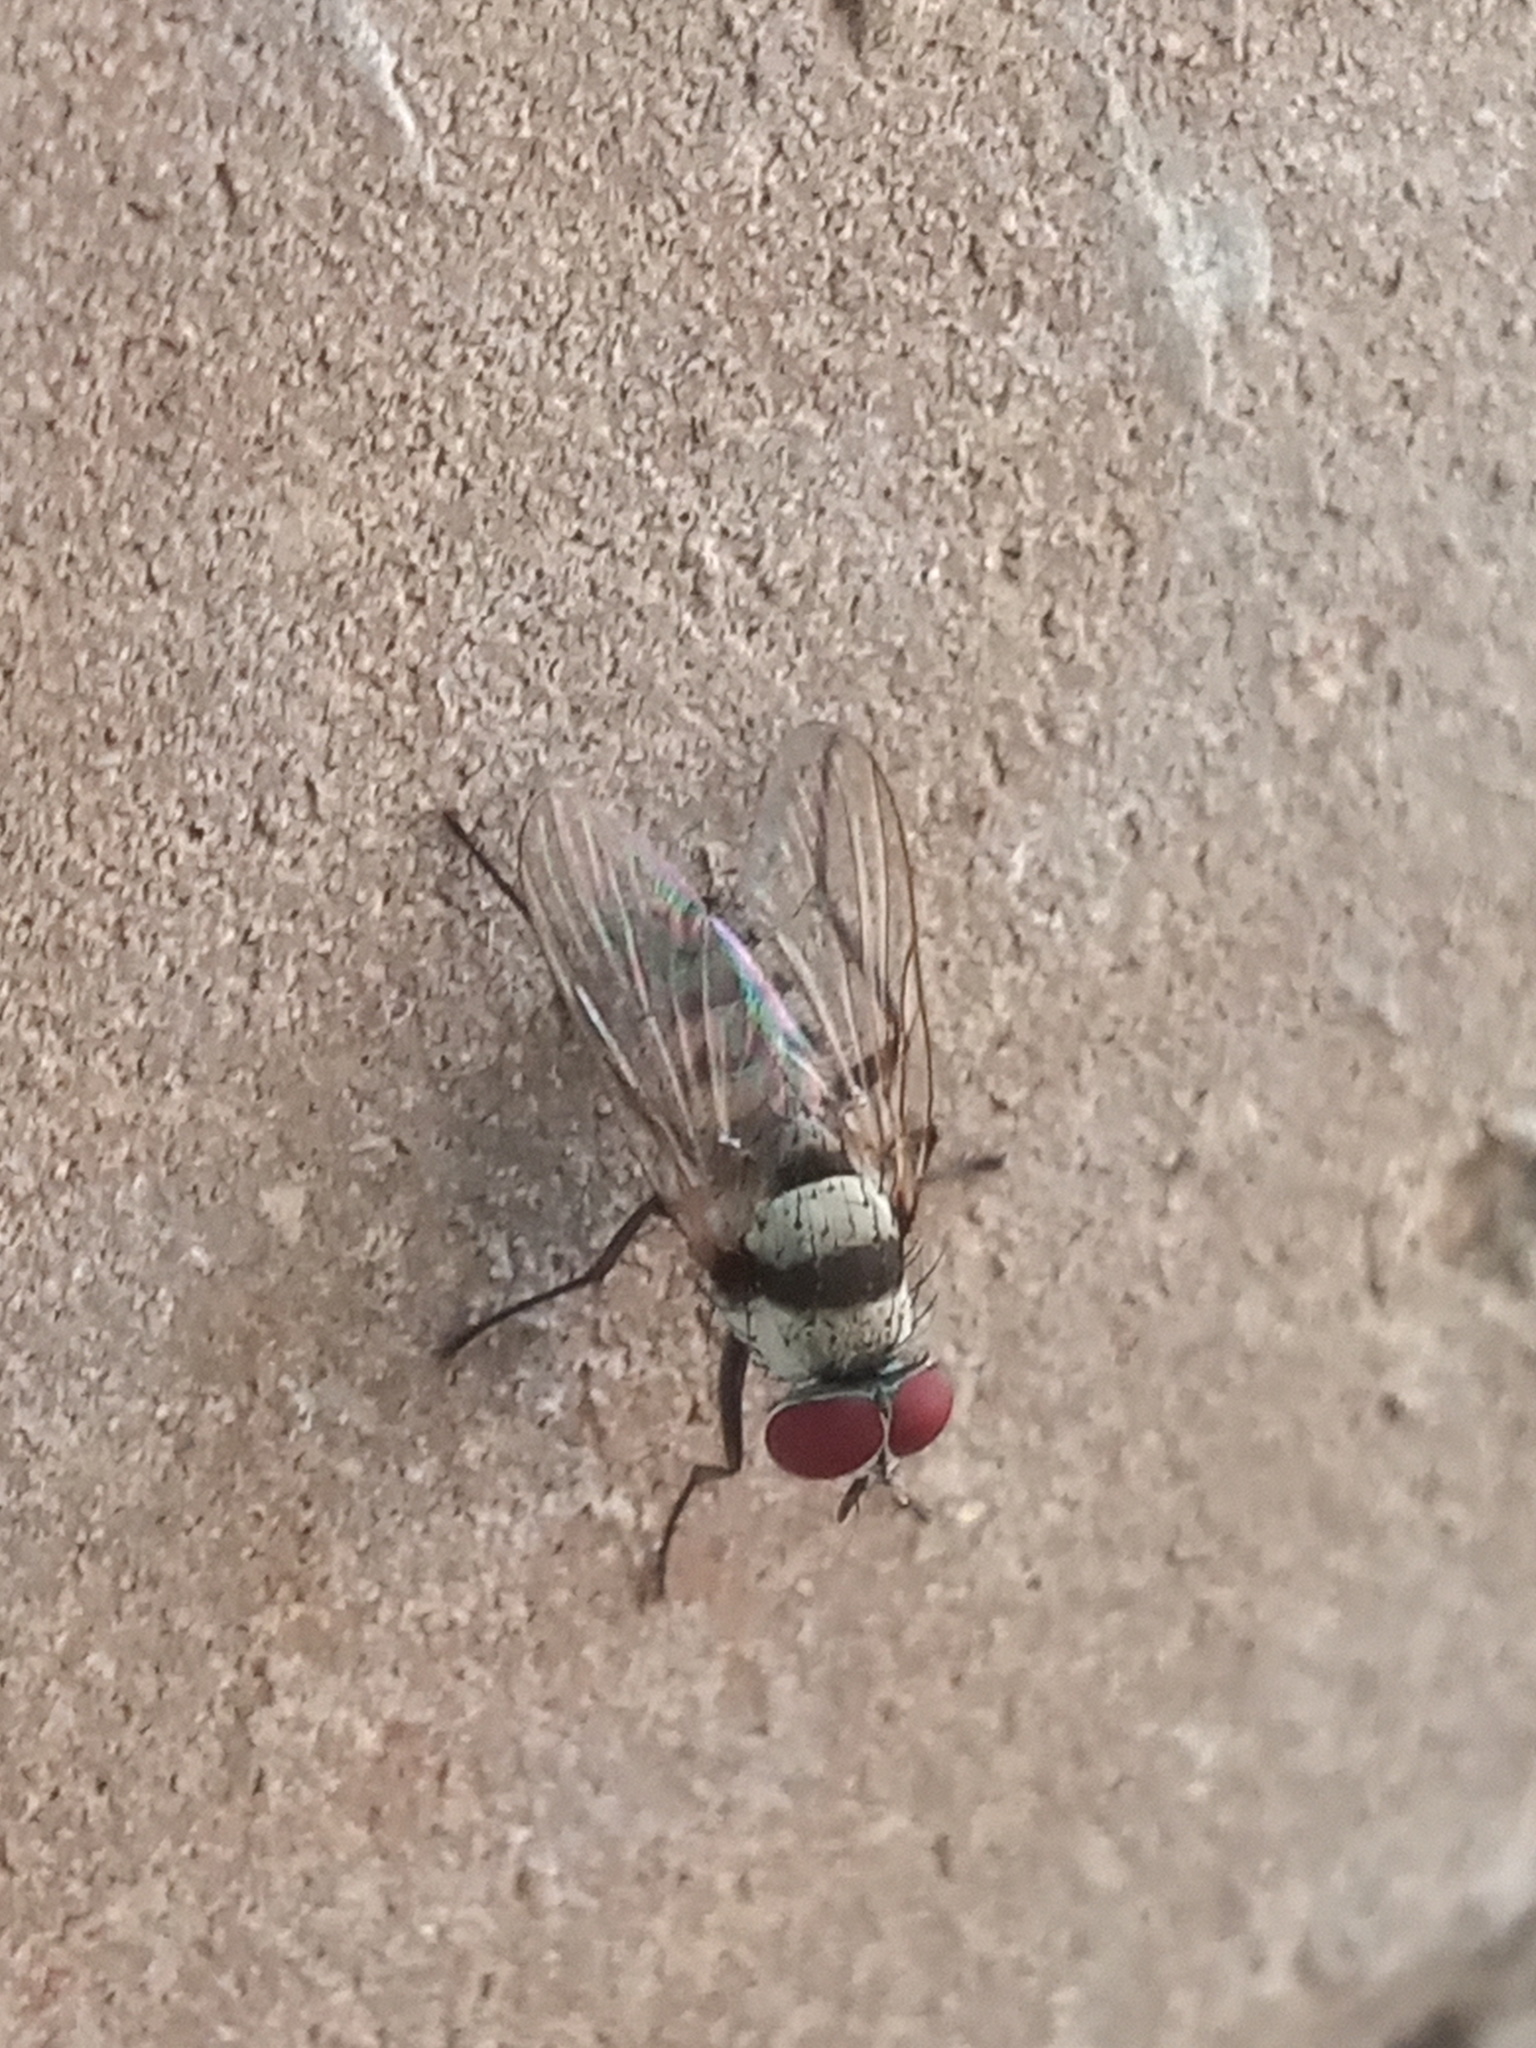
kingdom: Animalia
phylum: Arthropoda
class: Insecta
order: Diptera
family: Anthomyiidae
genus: Anthomyia
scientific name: Anthomyia illocata
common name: Fly
